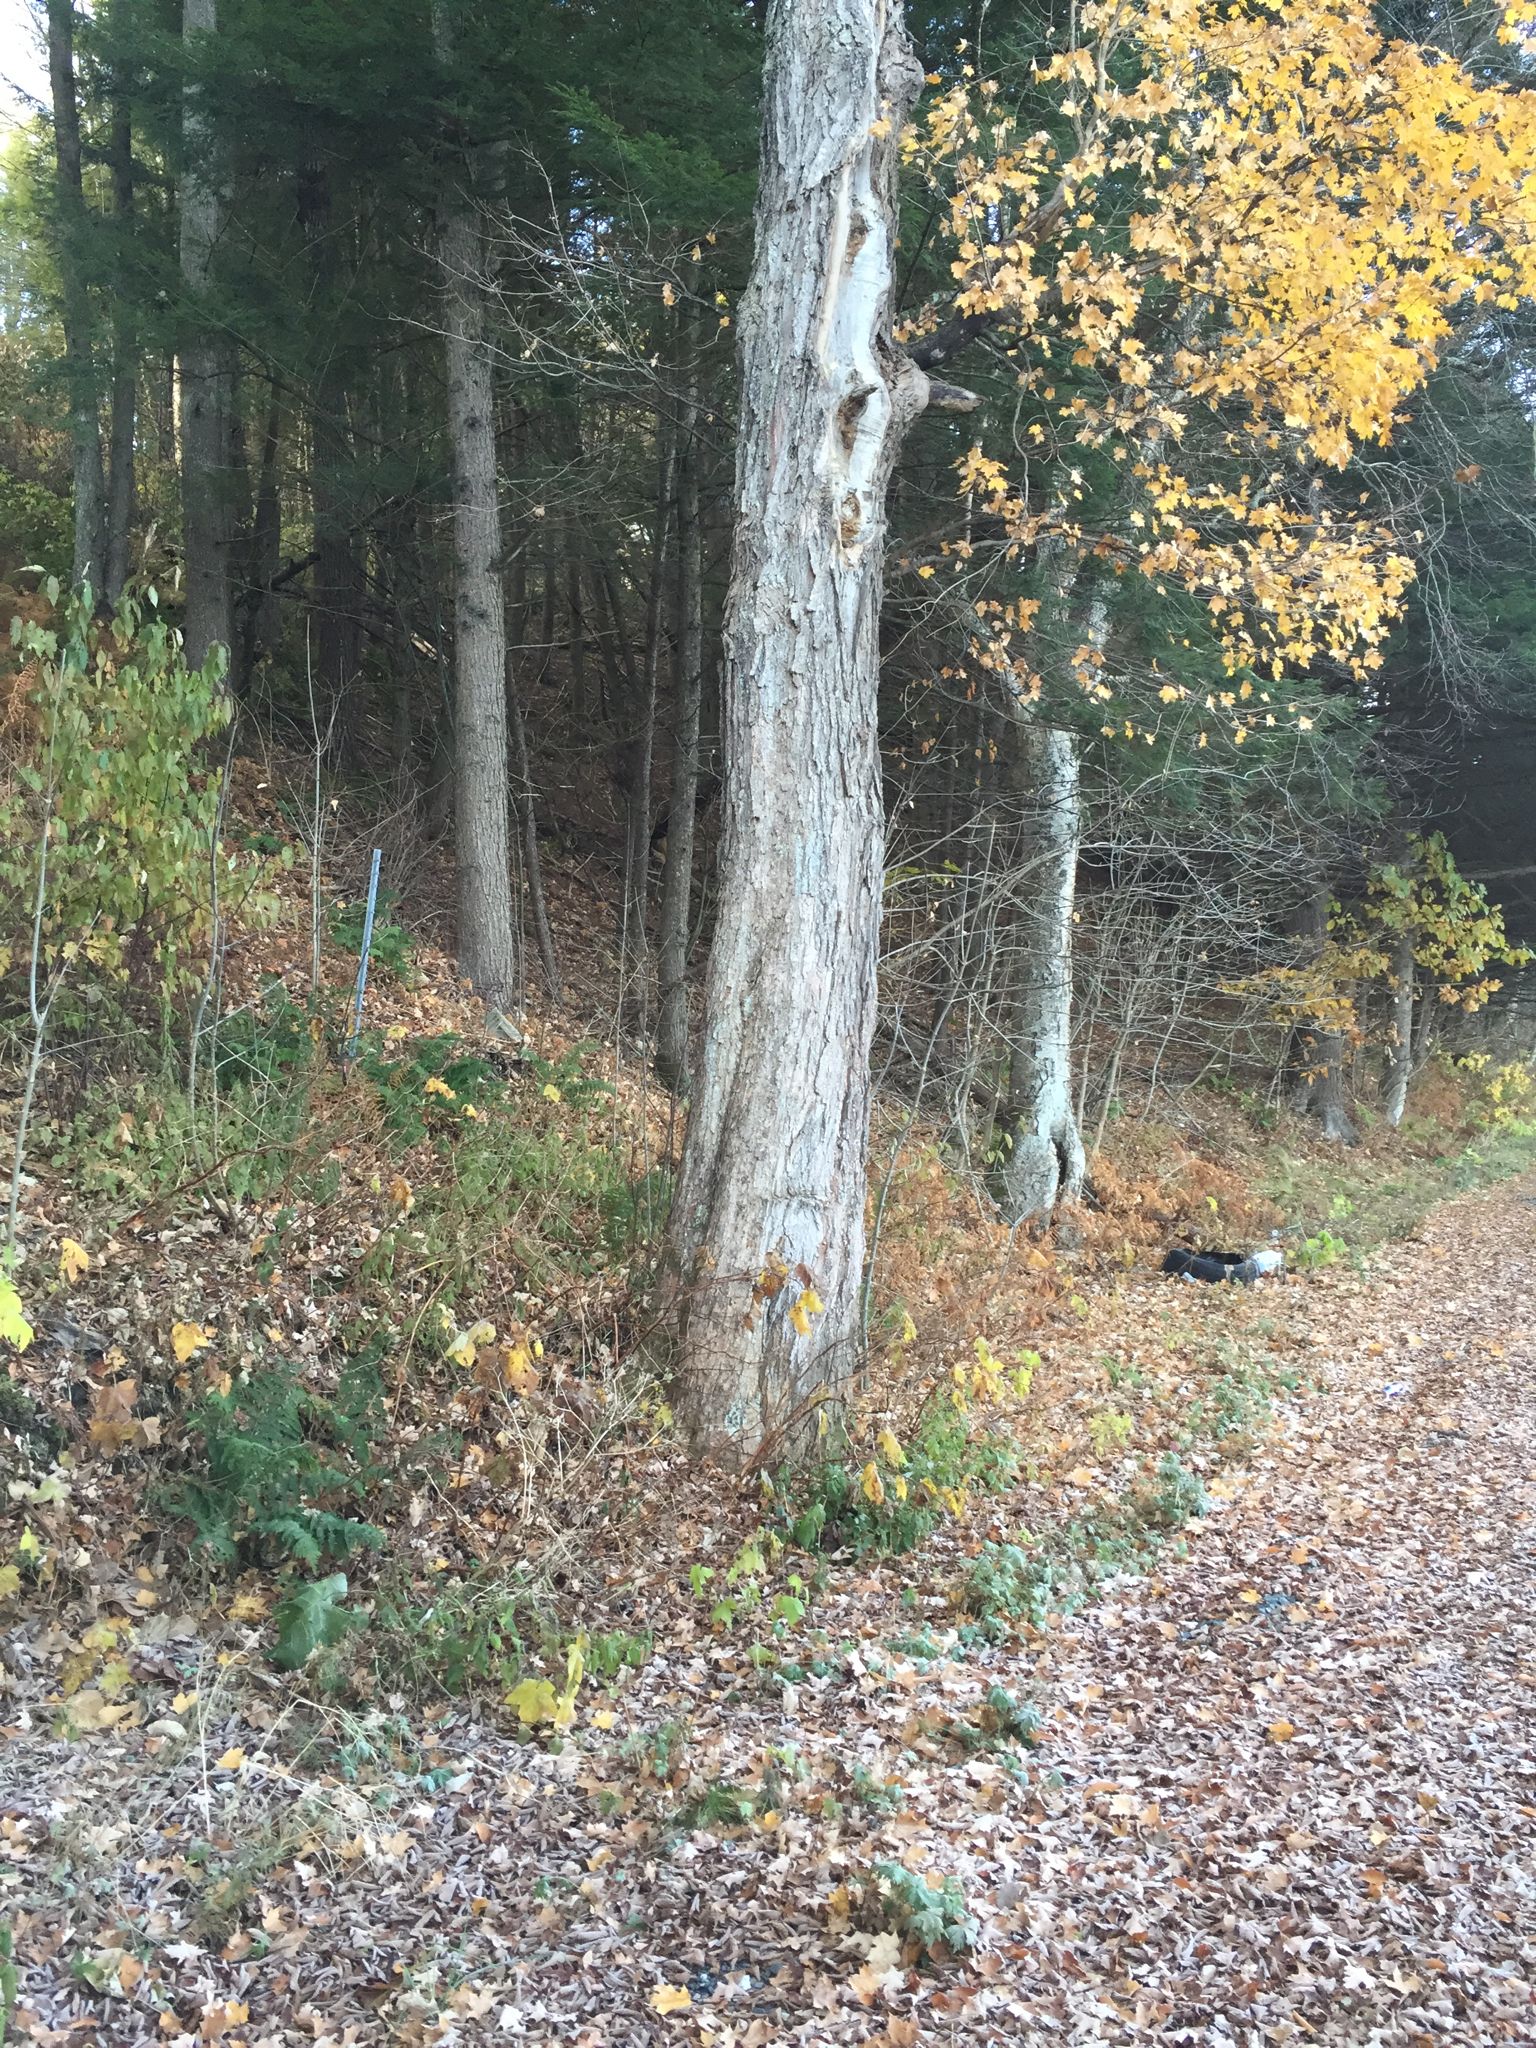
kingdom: Plantae
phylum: Tracheophyta
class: Magnoliopsida
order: Sapindales
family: Sapindaceae
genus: Acer
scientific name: Acer saccharum
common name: Sugar maple
